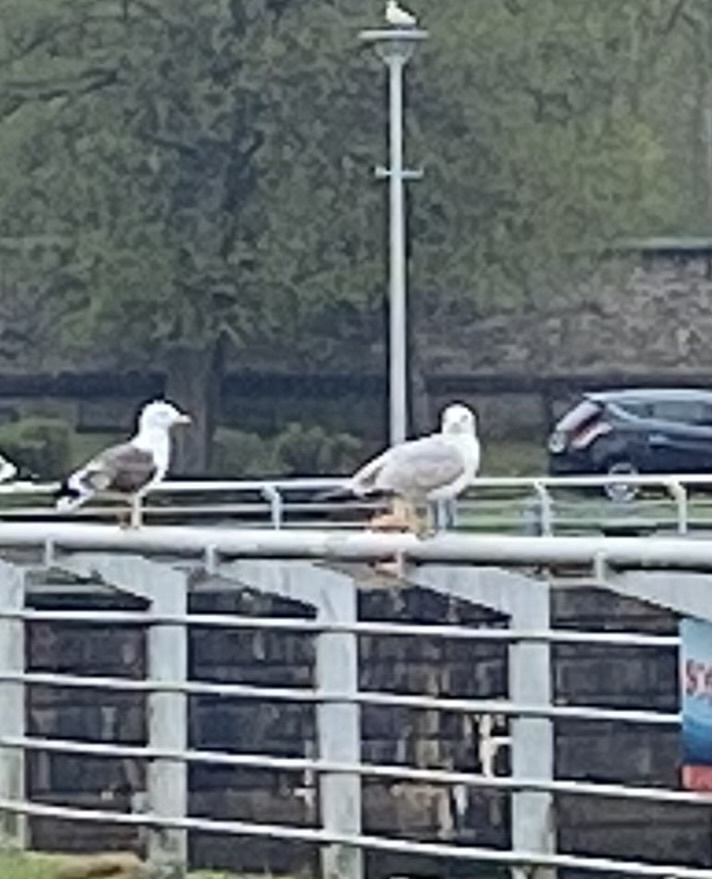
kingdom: Animalia
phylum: Chordata
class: Aves
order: Charadriiformes
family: Laridae
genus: Larus
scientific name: Larus argentatus
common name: Herring gull
